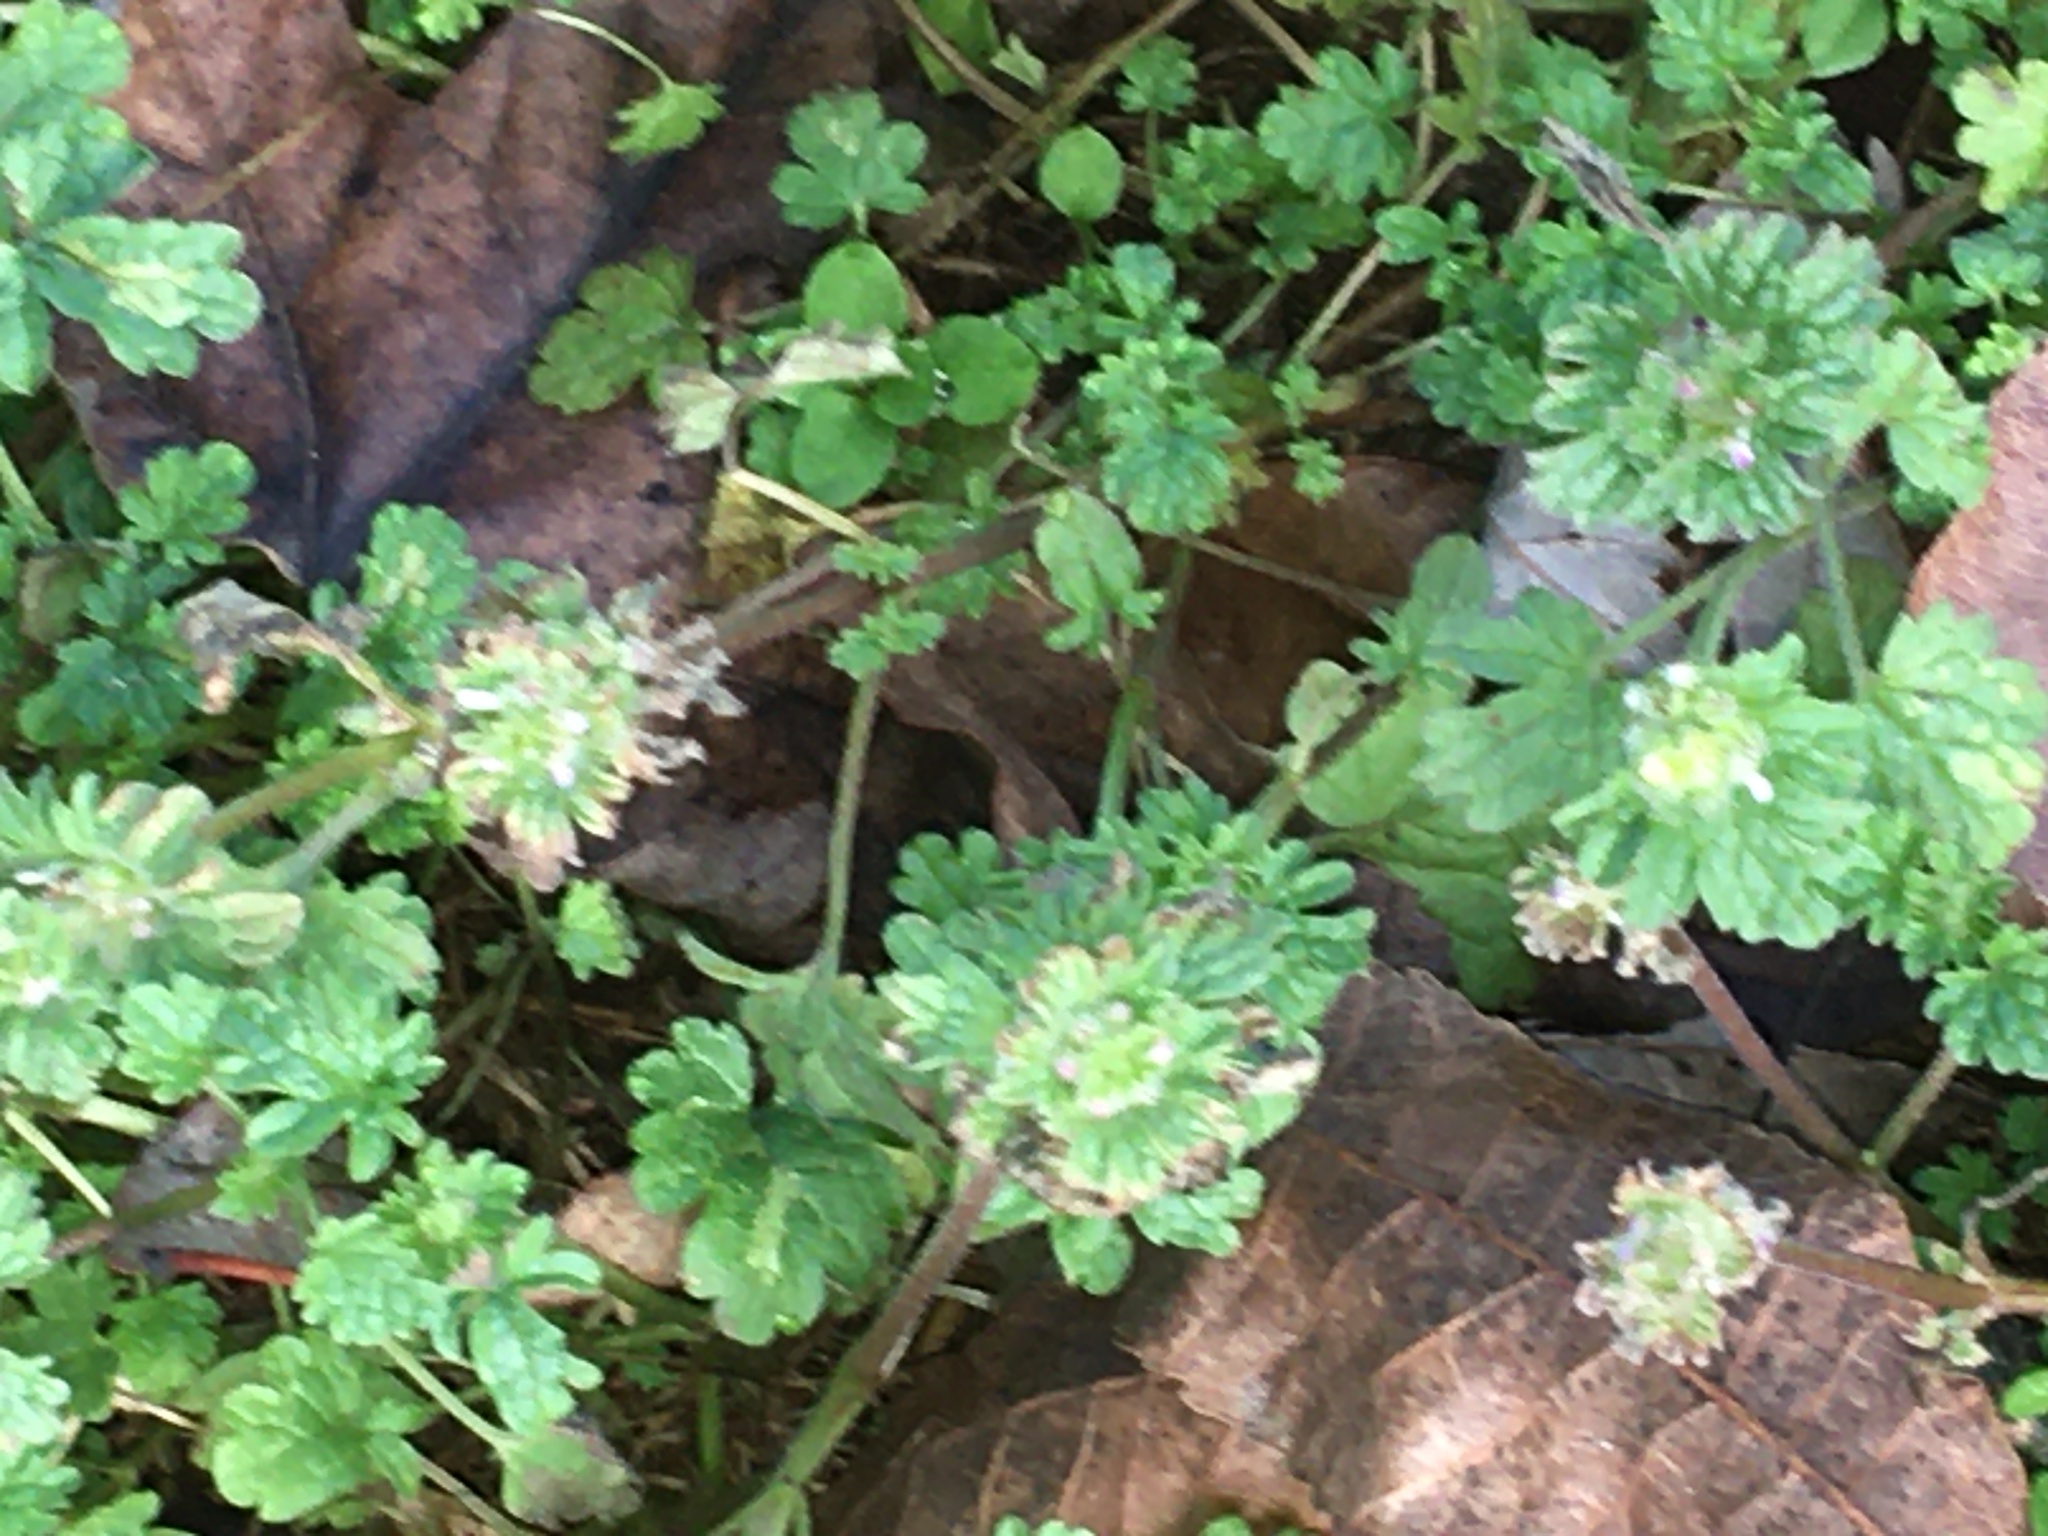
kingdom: Plantae
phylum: Tracheophyta
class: Magnoliopsida
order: Lamiales
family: Lamiaceae
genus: Lamium
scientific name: Lamium amplexicaule
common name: Henbit dead-nettle
